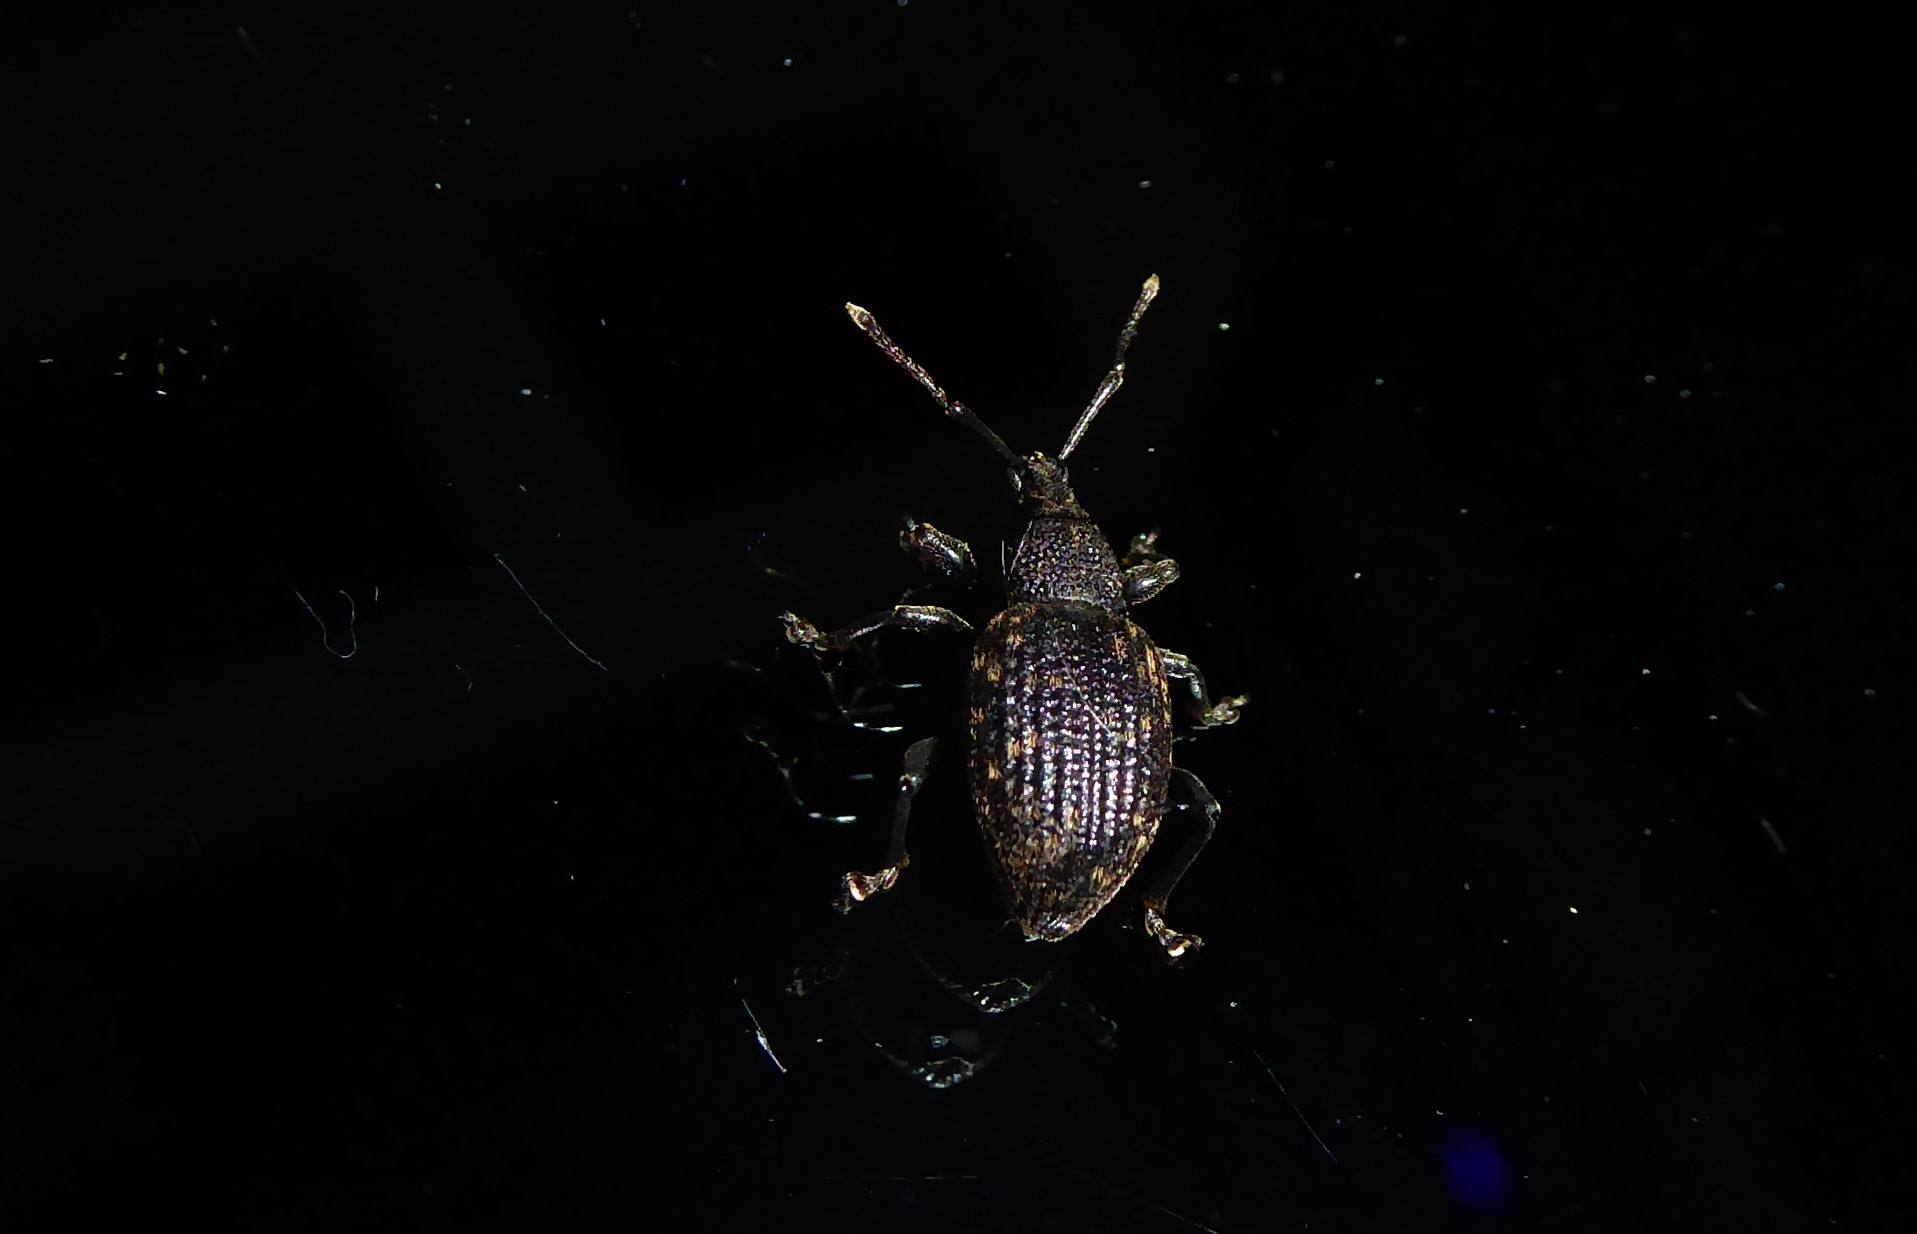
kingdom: Animalia
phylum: Arthropoda
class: Insecta
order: Coleoptera
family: Curculionidae
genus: Otiorhynchus
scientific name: Otiorhynchus sulcatus
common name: Black vine weevil
